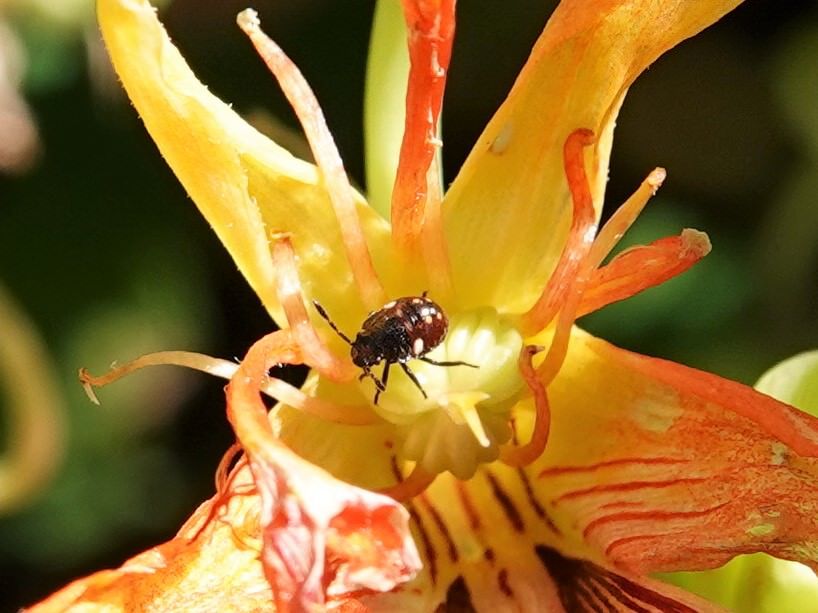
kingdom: Animalia
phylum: Arthropoda
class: Insecta
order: Hemiptera
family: Pentatomidae
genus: Nezara
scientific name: Nezara viridula
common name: Southern green stink bug
